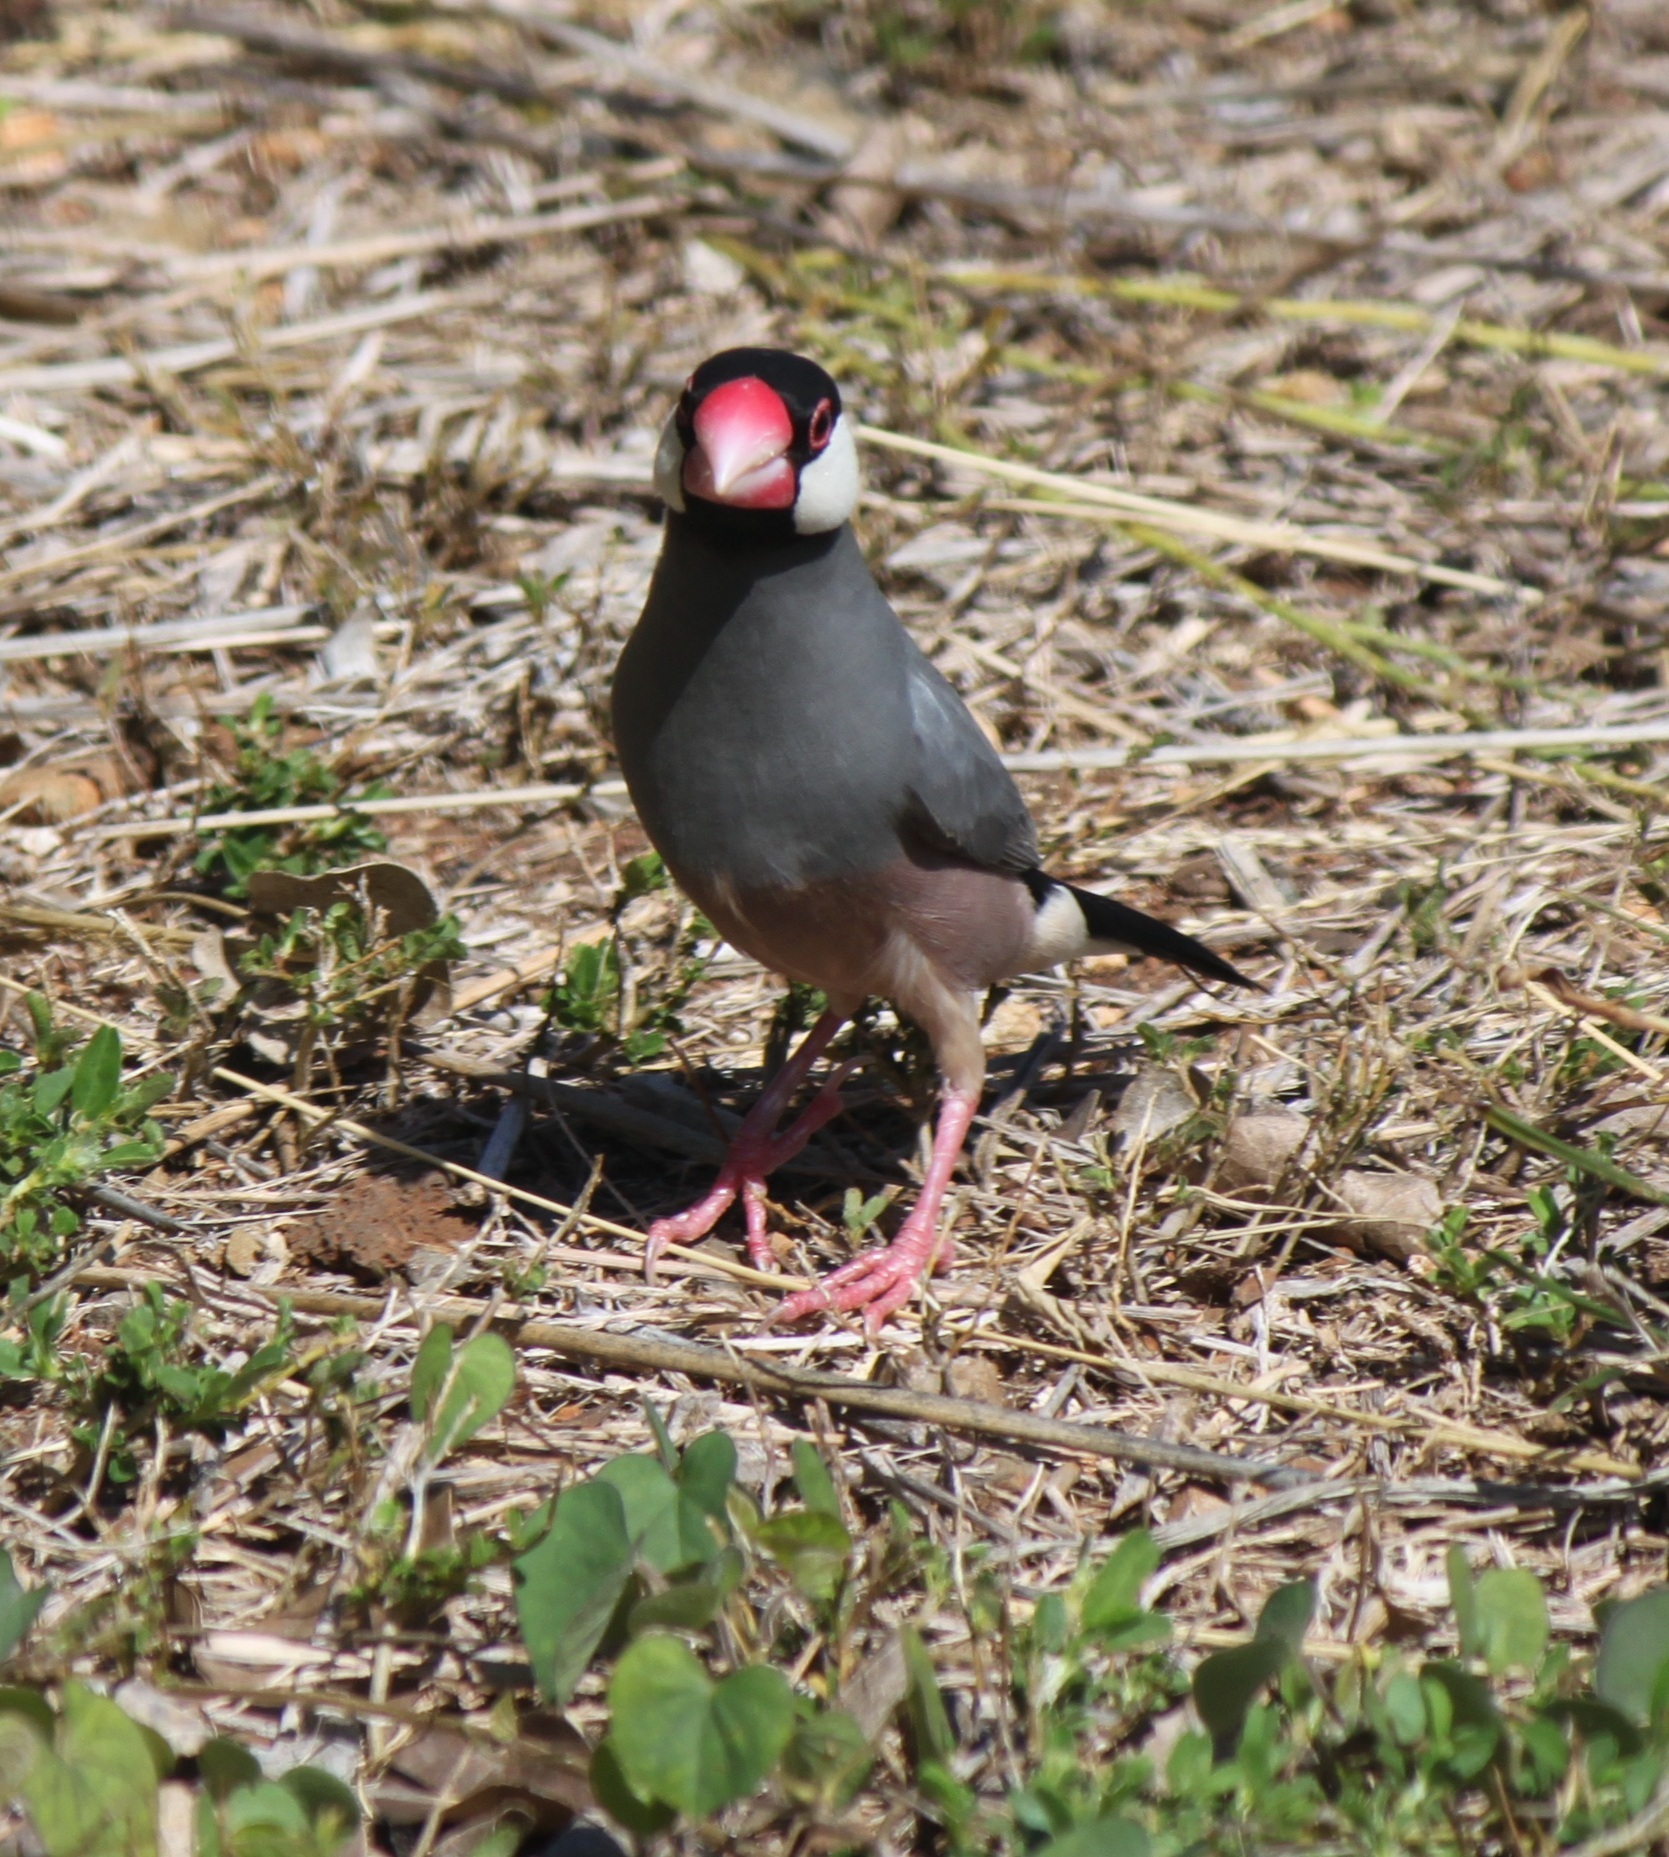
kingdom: Animalia
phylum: Chordata
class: Aves
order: Passeriformes
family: Estrildidae
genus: Lonchura
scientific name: Lonchura oryzivora
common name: Java sparrow
